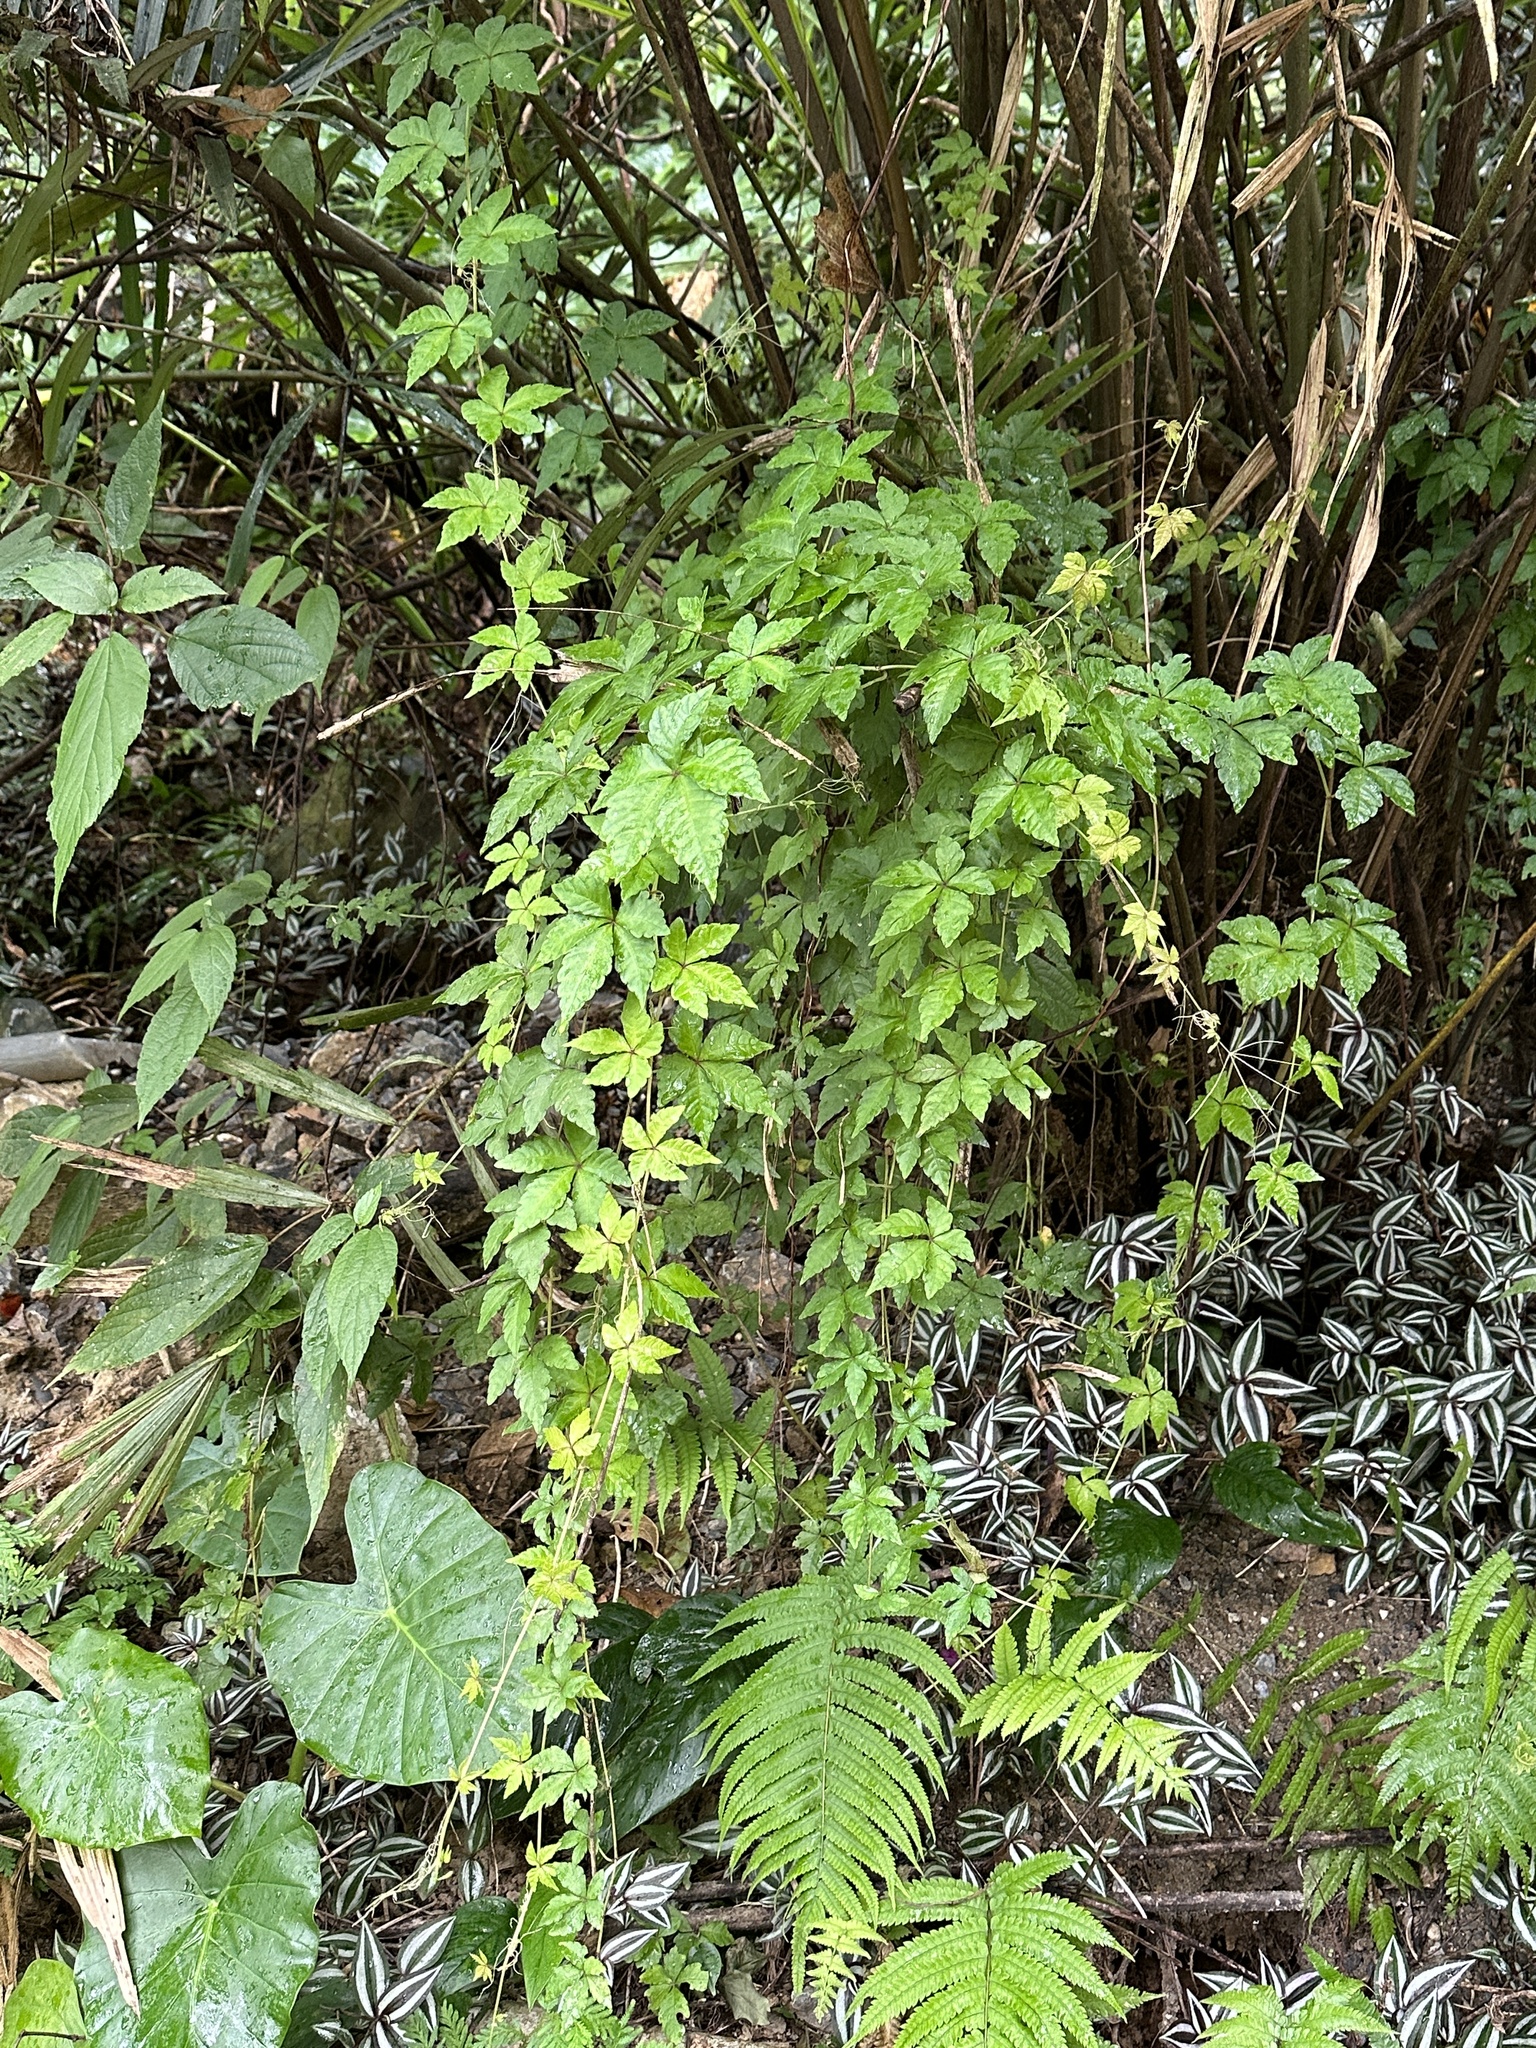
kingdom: Plantae
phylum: Tracheophyta
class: Magnoliopsida
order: Vitales
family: Vitaceae
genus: Tetrastigma
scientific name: Tetrastigma obtectum
